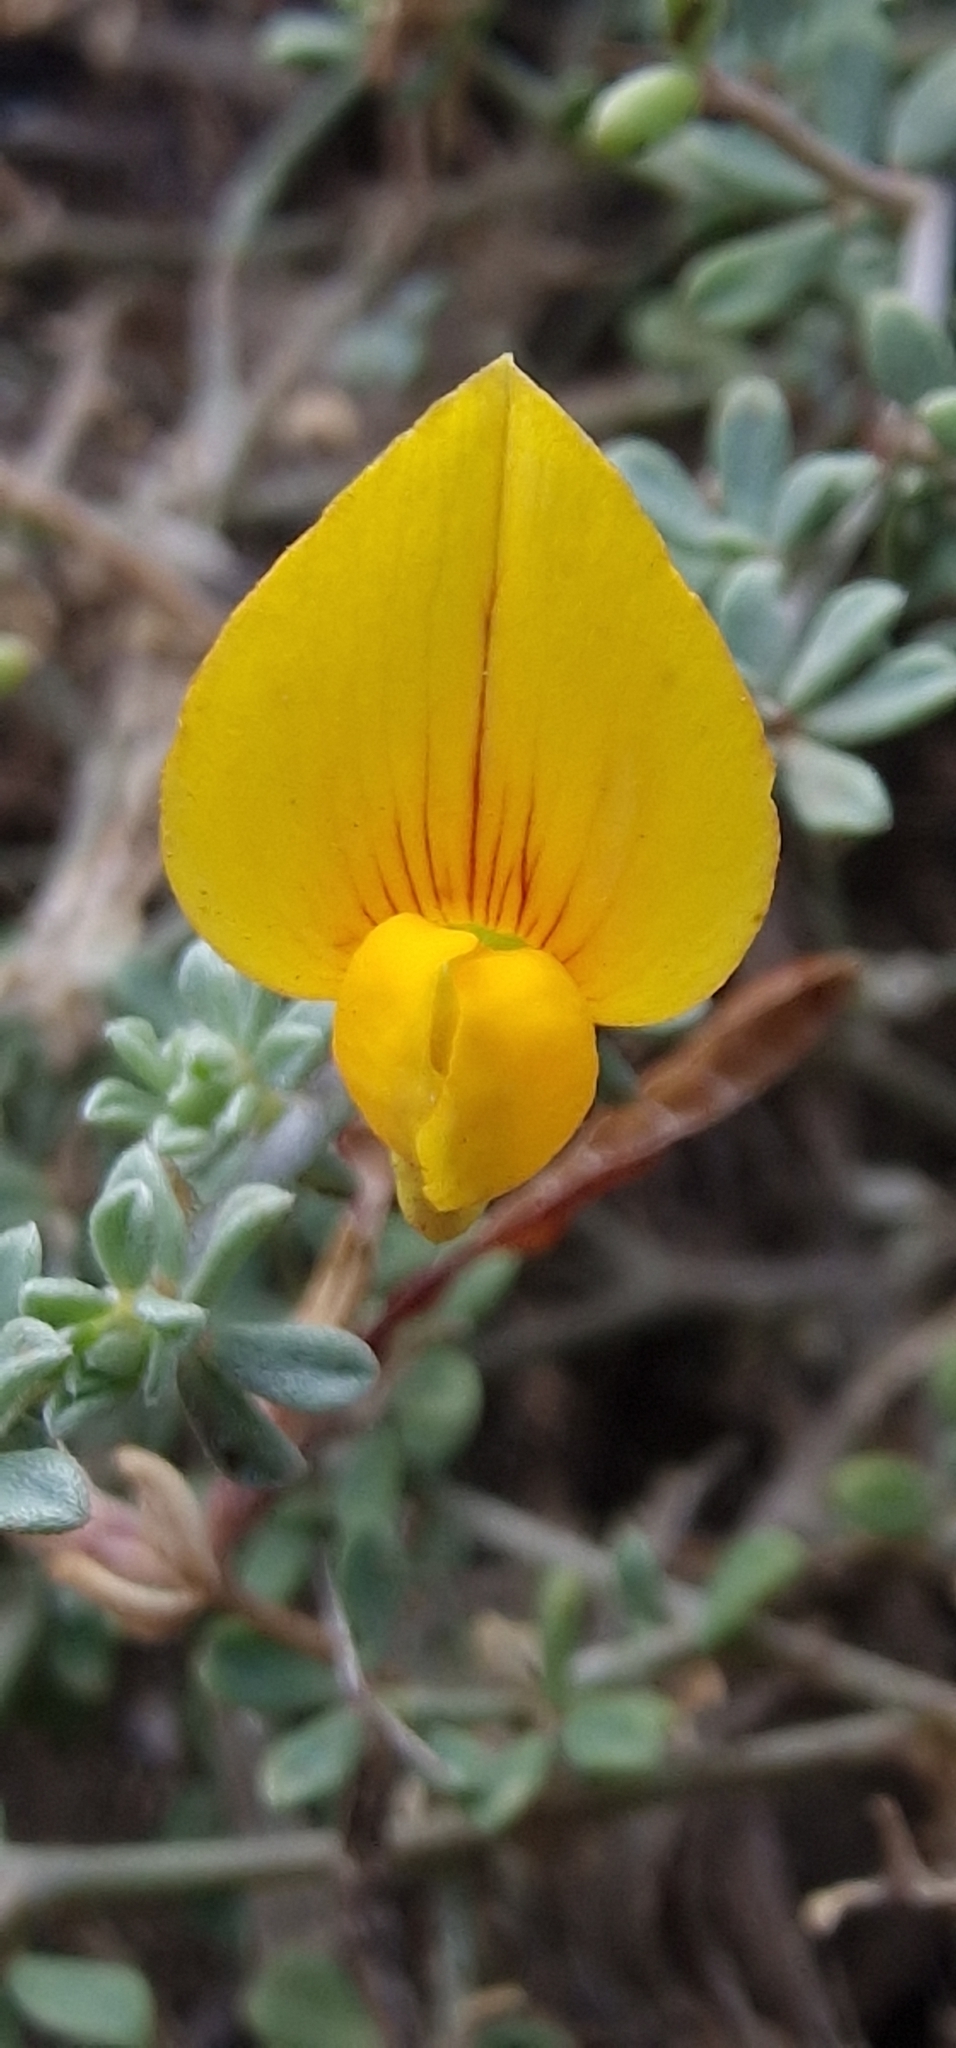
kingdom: Plantae
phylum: Tracheophyta
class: Magnoliopsida
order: Fabales
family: Fabaceae
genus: Lotus
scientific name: Lotus glaucus
